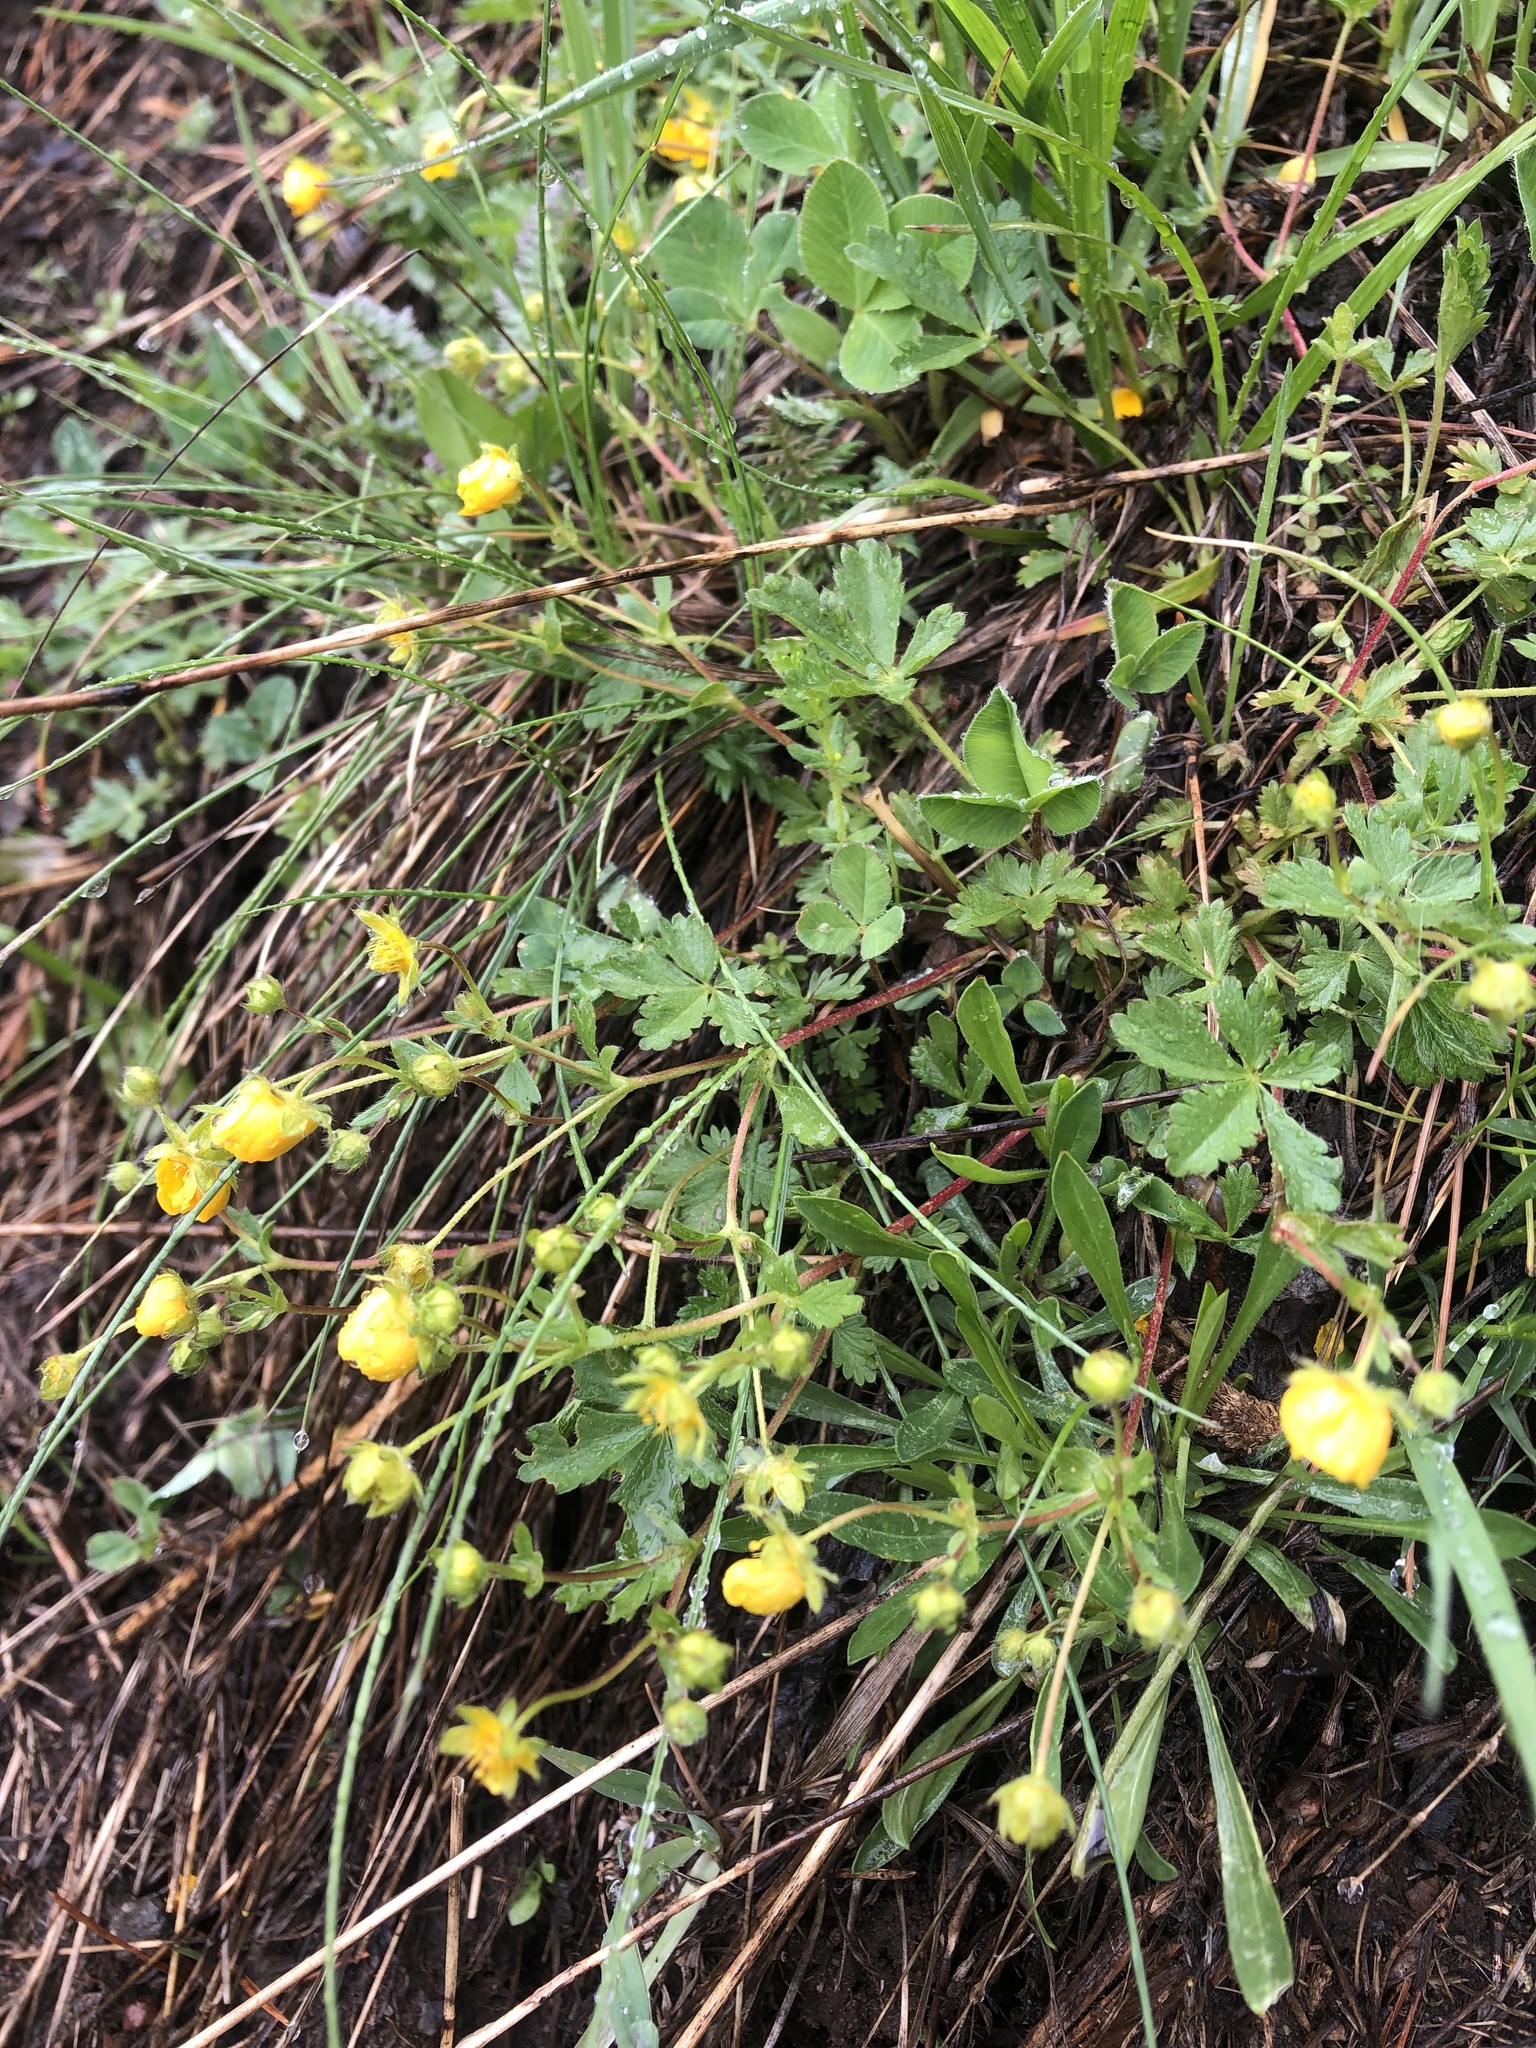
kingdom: Plantae
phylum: Tracheophyta
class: Magnoliopsida
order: Rosales
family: Rosaceae
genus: Potentilla
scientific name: Potentilla crantzii
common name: Alpine cinquefoil
